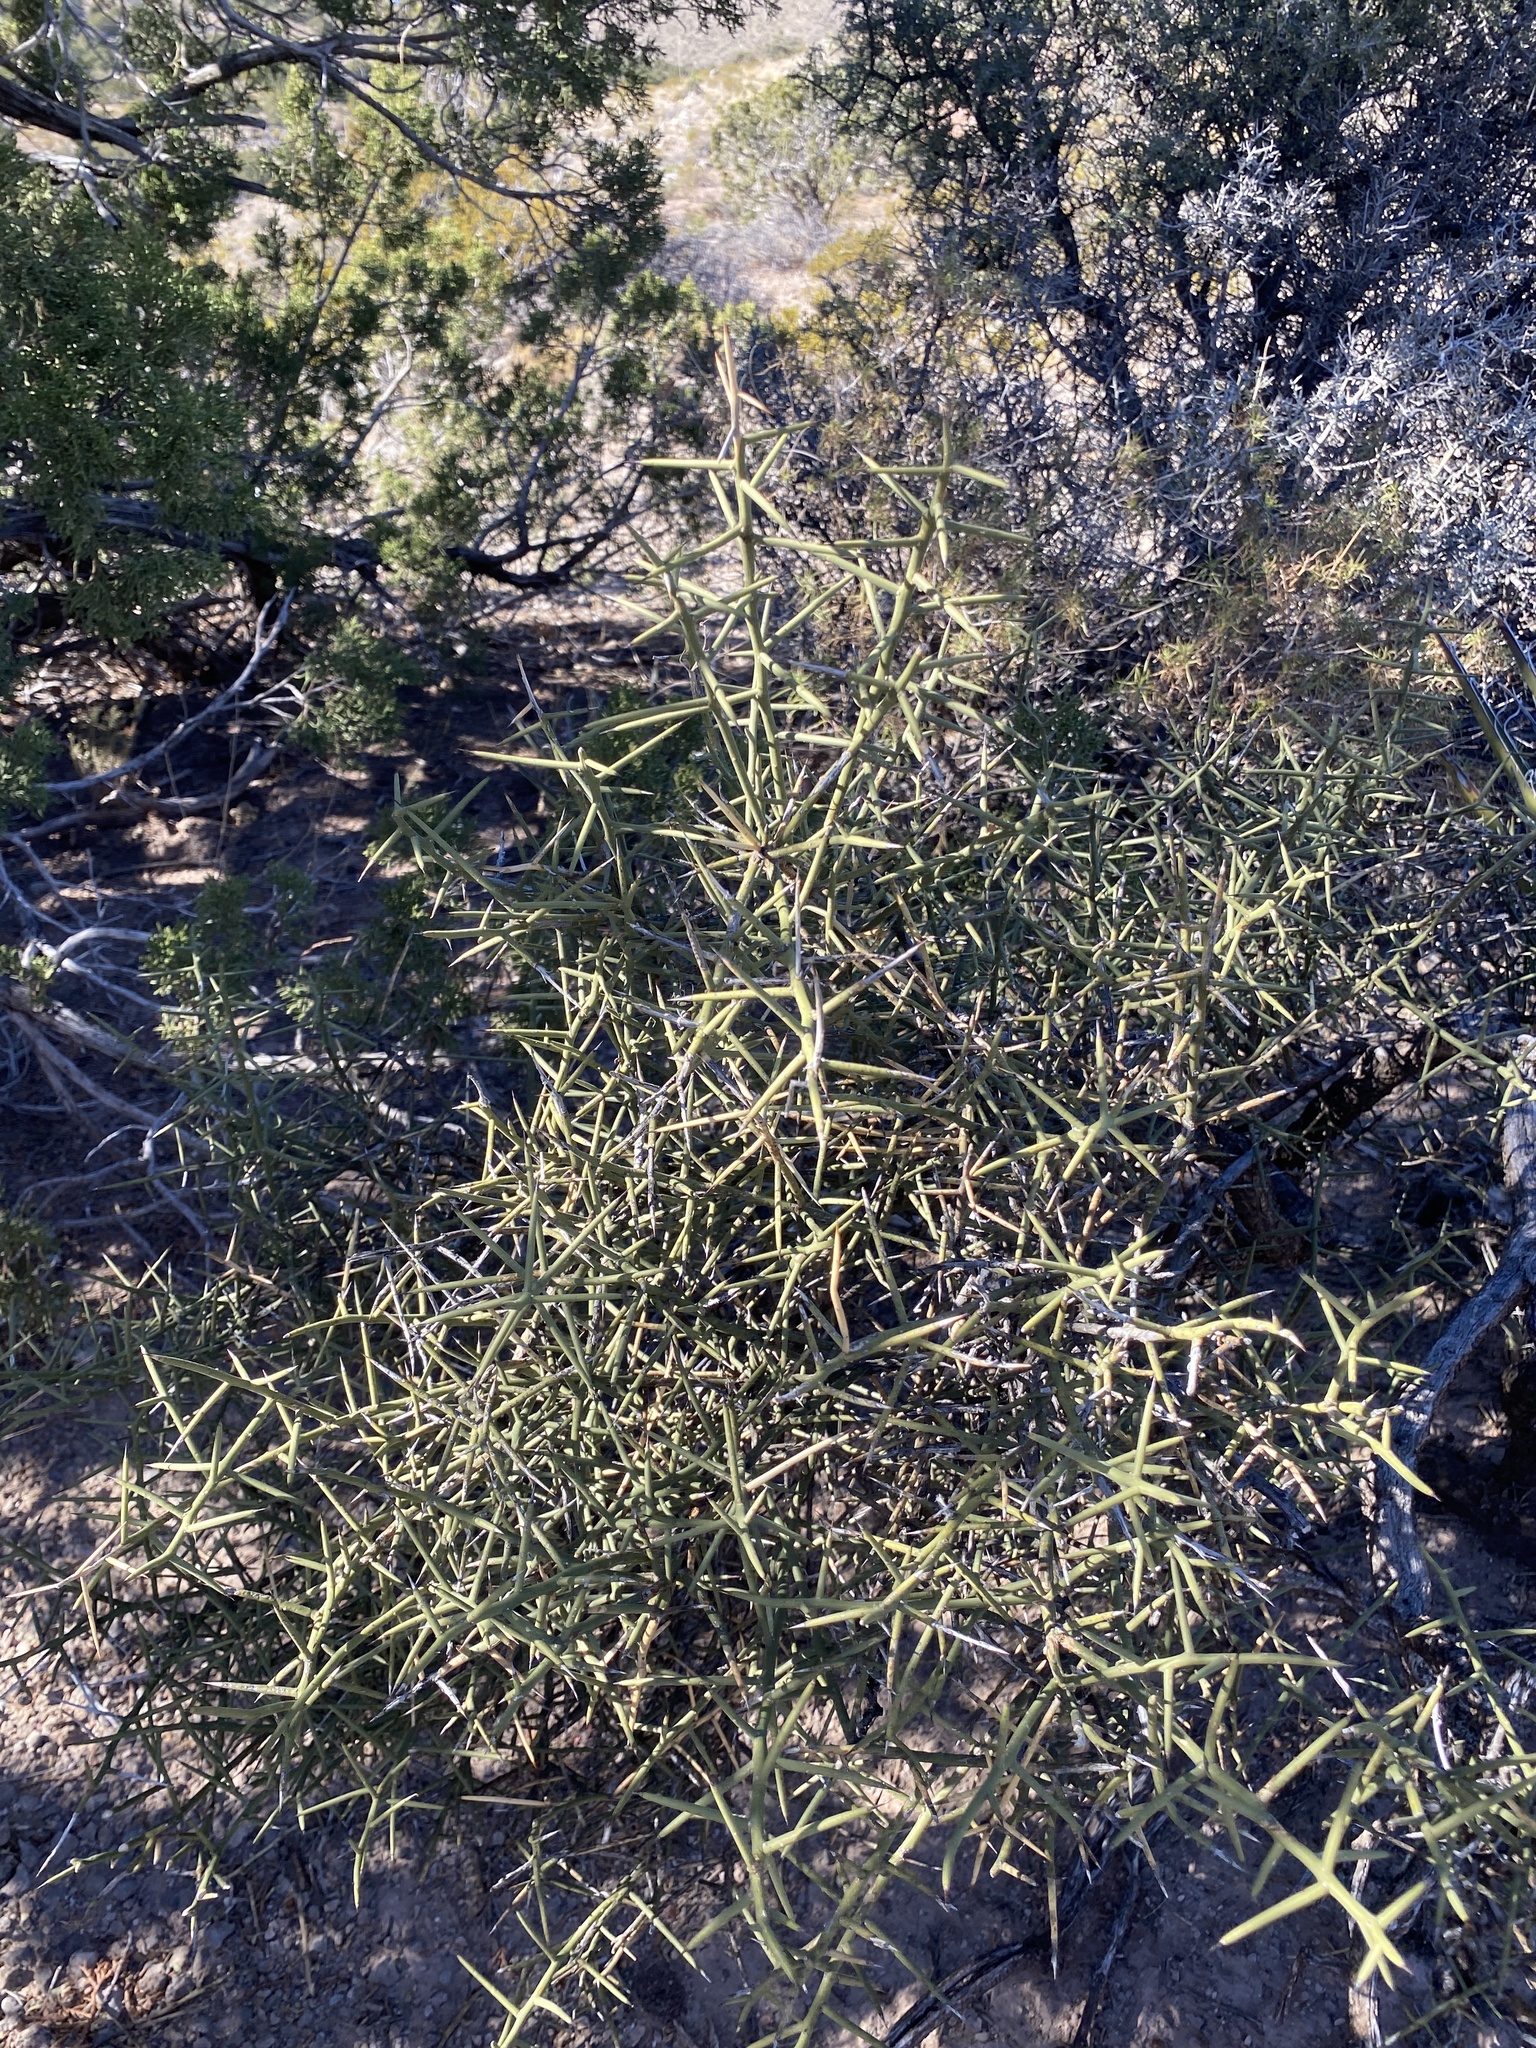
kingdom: Plantae
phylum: Tracheophyta
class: Magnoliopsida
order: Brassicales
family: Koeberliniaceae
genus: Koeberlinia
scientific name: Koeberlinia spinosa
